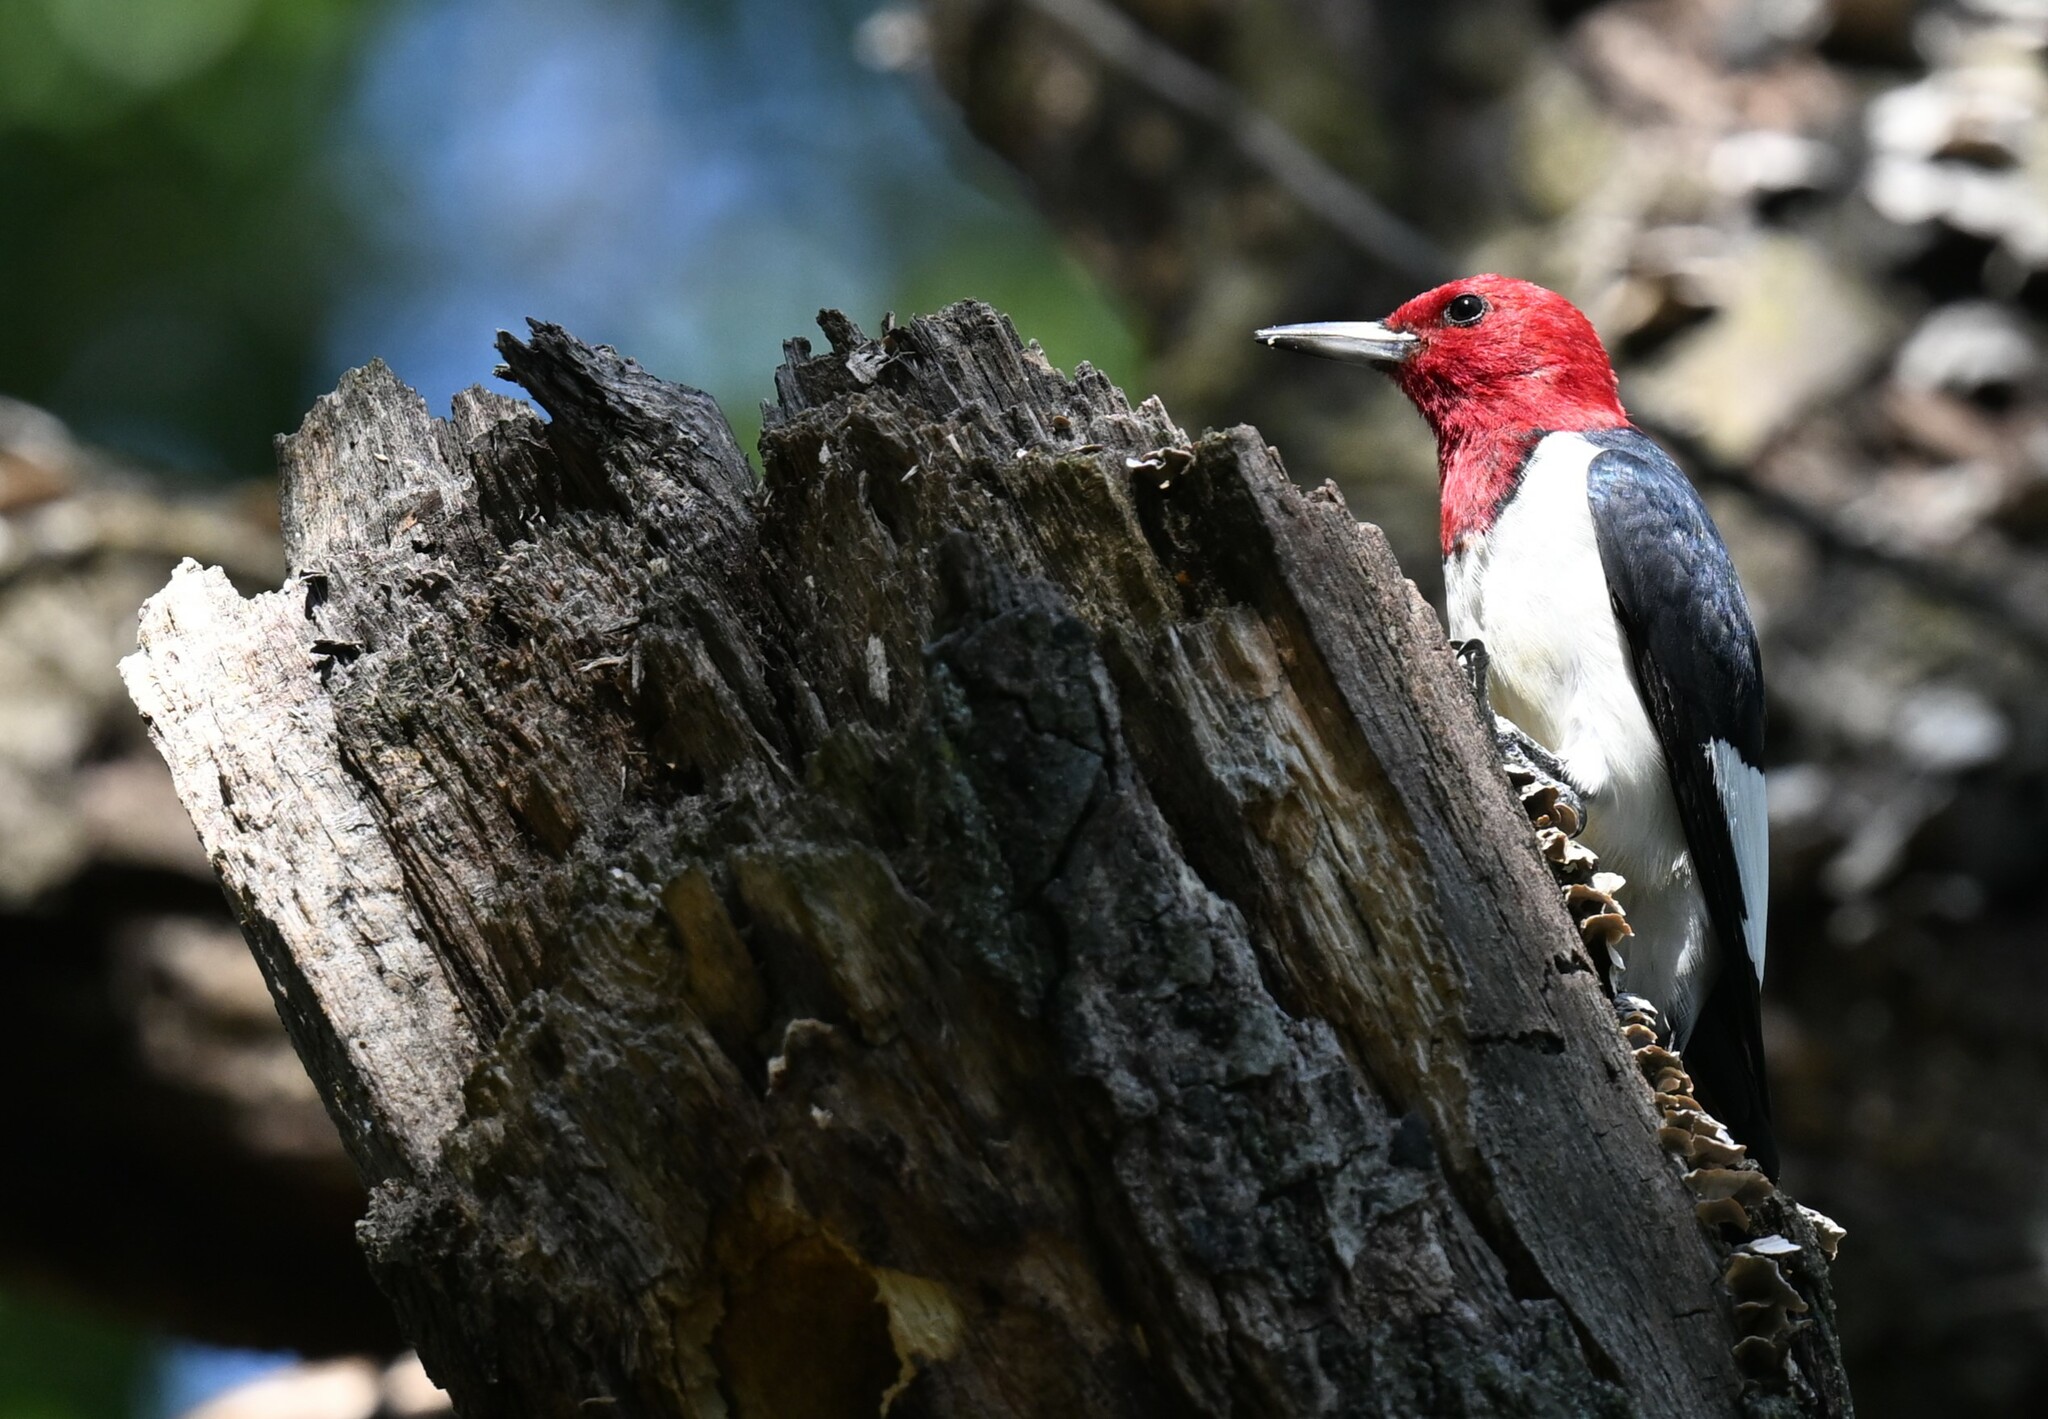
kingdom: Animalia
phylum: Chordata
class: Aves
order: Piciformes
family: Picidae
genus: Melanerpes
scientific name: Melanerpes erythrocephalus
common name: Red-headed woodpecker
